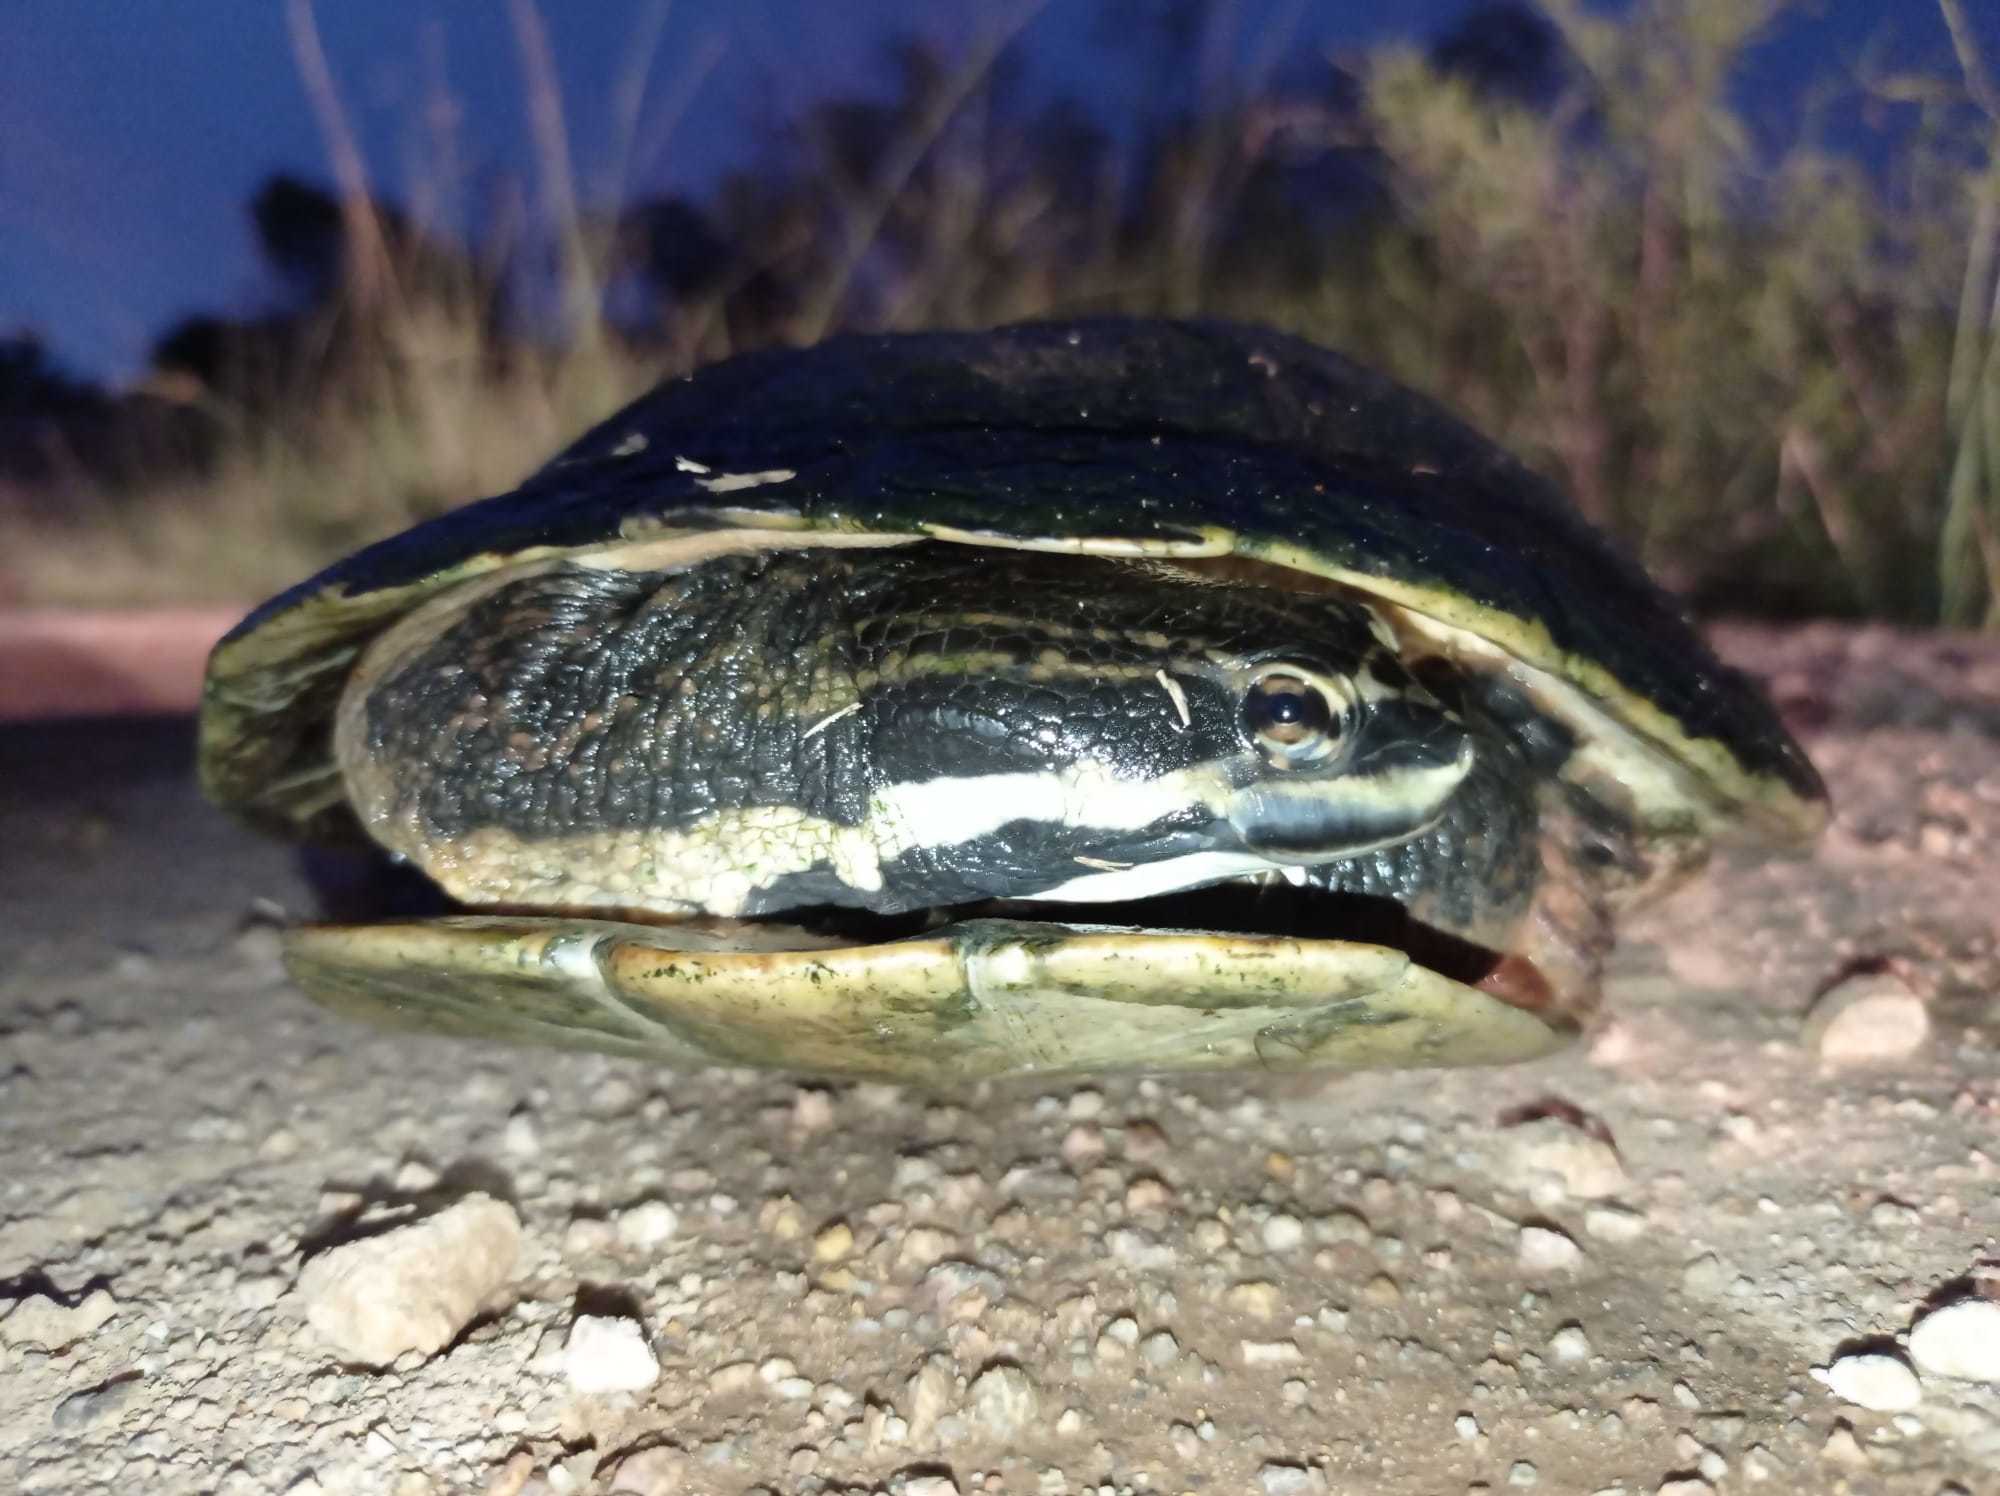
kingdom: Animalia
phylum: Chordata
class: Testudines
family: Chelidae
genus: Phrynops
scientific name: Phrynops williamsi
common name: Williams side-necked turtle
